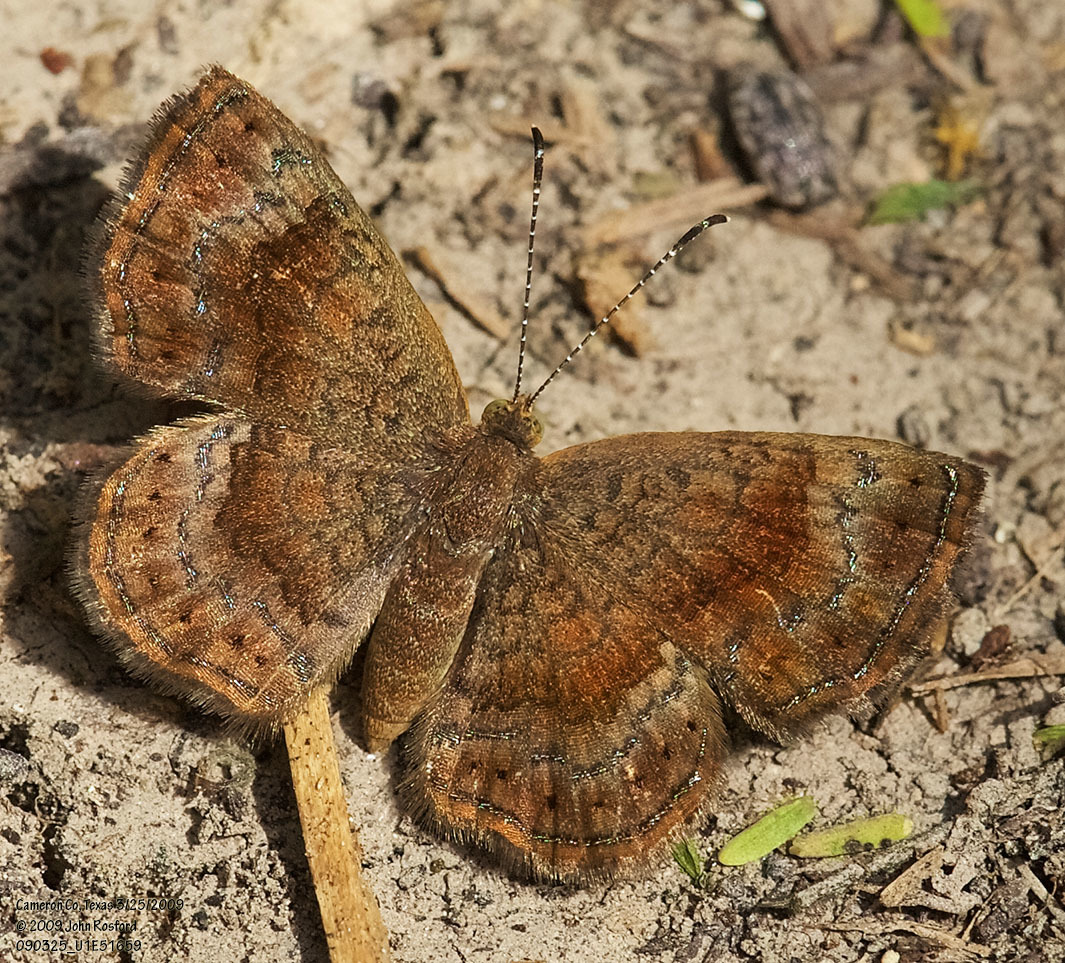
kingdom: Animalia
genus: Calephelis
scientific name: Calephelis perditalis
